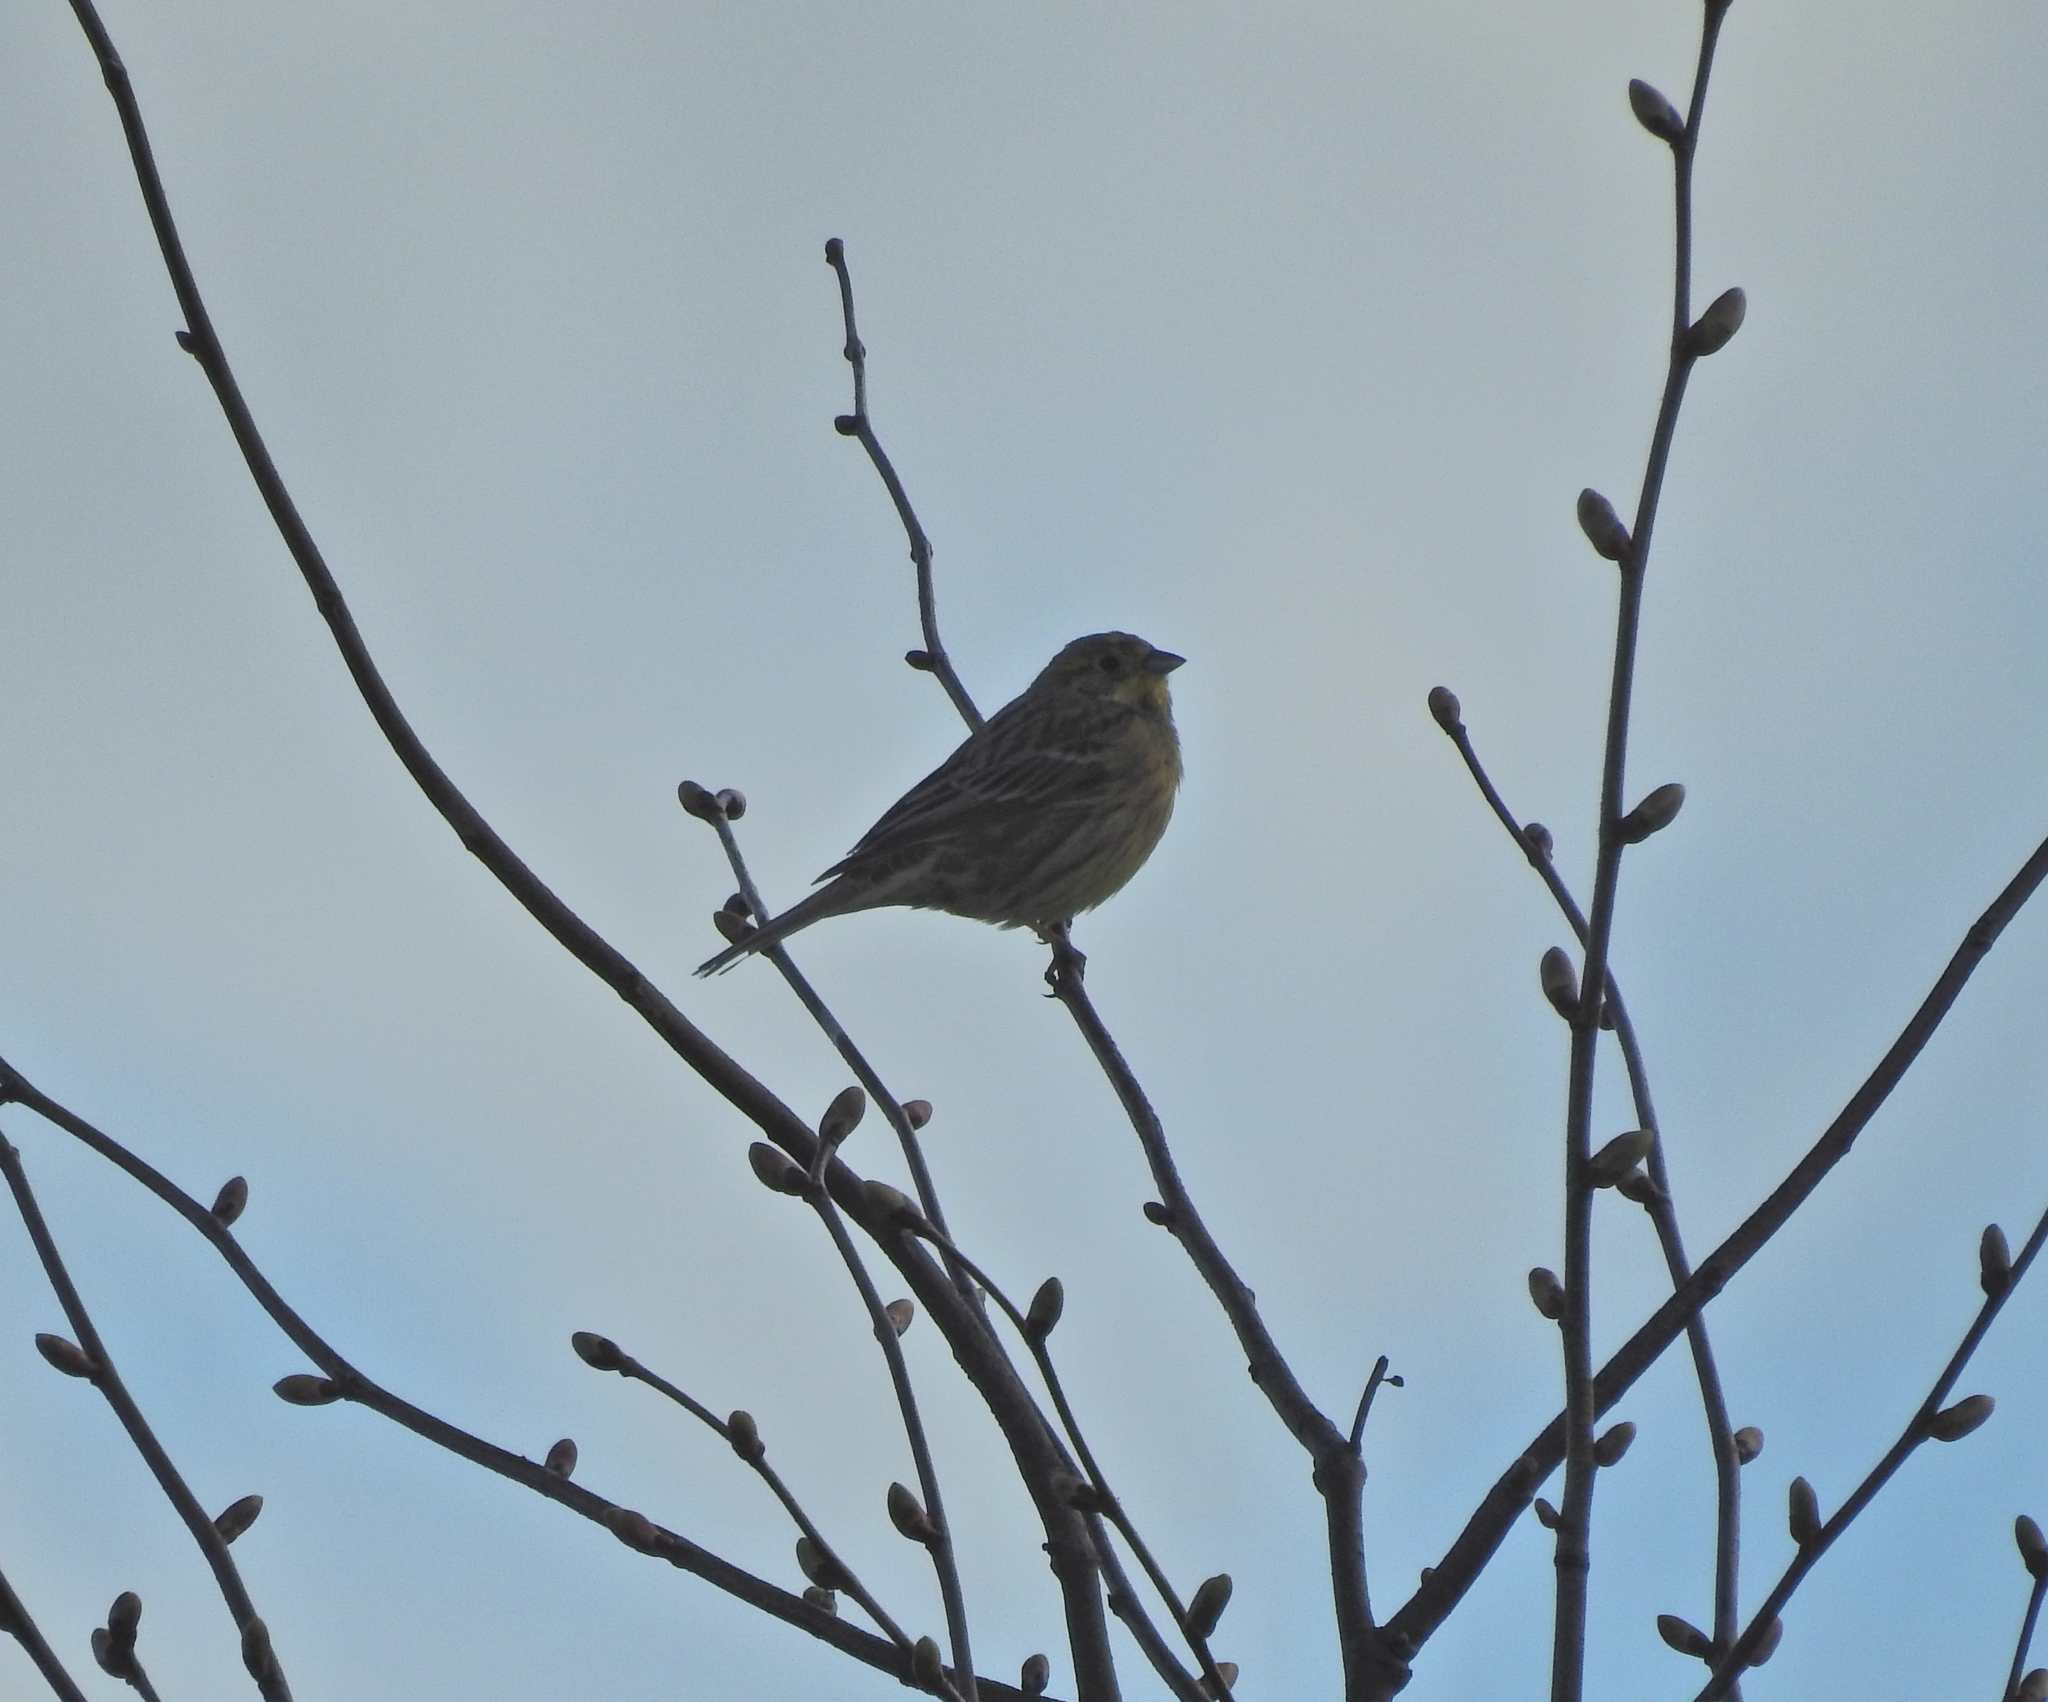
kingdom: Animalia
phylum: Chordata
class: Aves
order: Passeriformes
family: Emberizidae
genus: Emberiza
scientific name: Emberiza citrinella
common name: Yellowhammer
